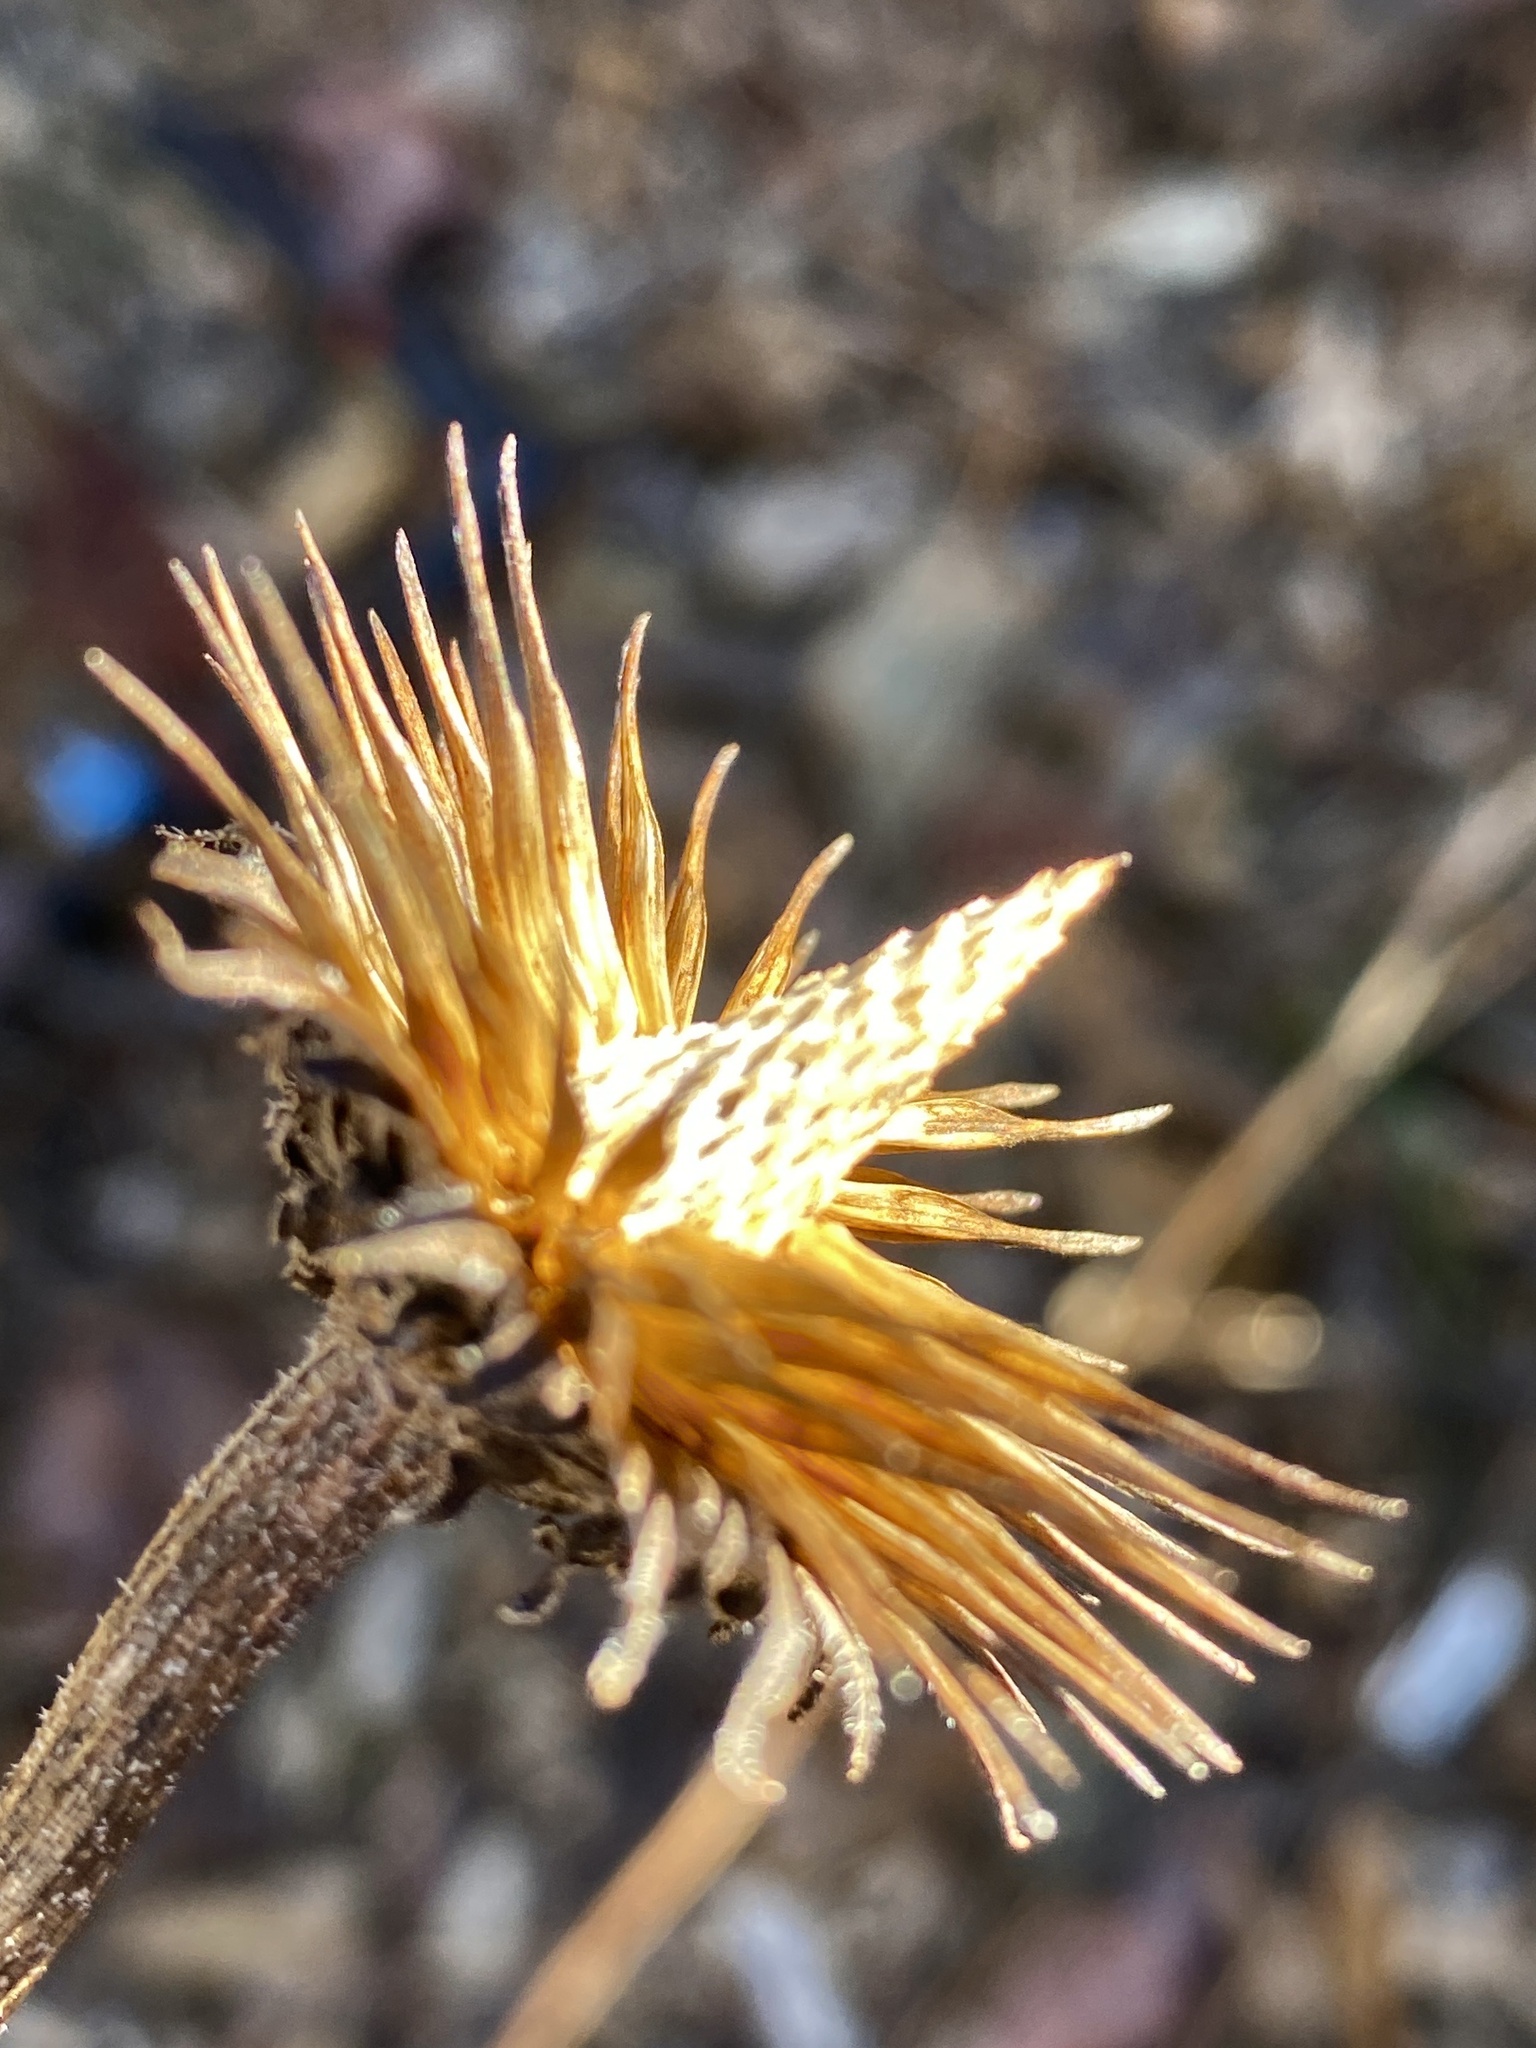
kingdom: Plantae
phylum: Tracheophyta
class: Magnoliopsida
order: Asterales
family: Asteraceae
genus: Echinacea
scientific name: Echinacea purpurea
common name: Broad-leaved purple coneflower
